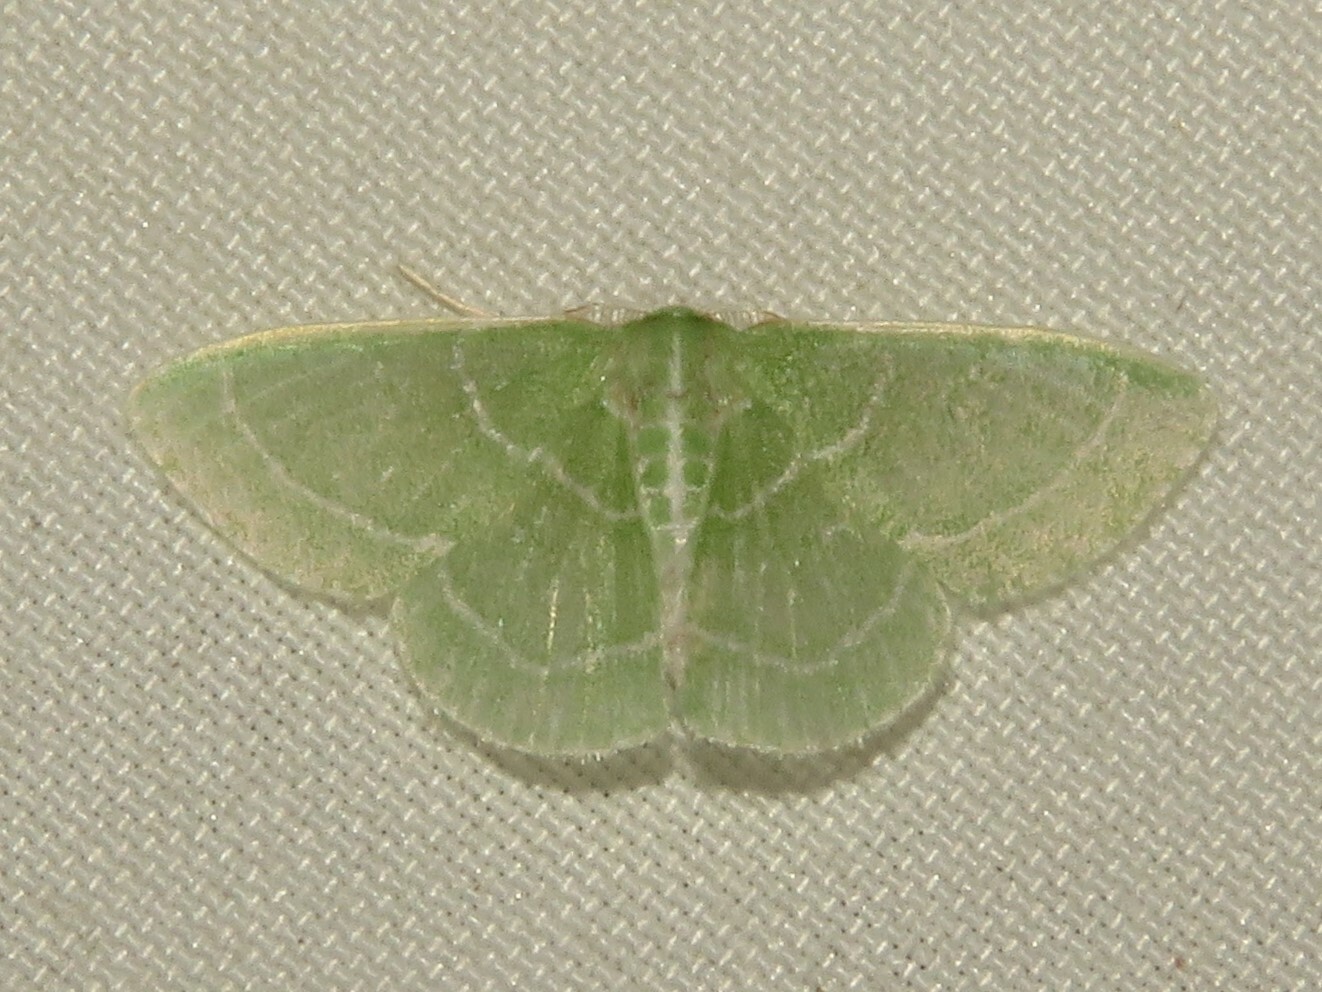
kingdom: Animalia
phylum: Arthropoda
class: Insecta
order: Lepidoptera
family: Geometridae
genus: Synchlora
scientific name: Synchlora aerata
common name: Wavy-lined emerald
